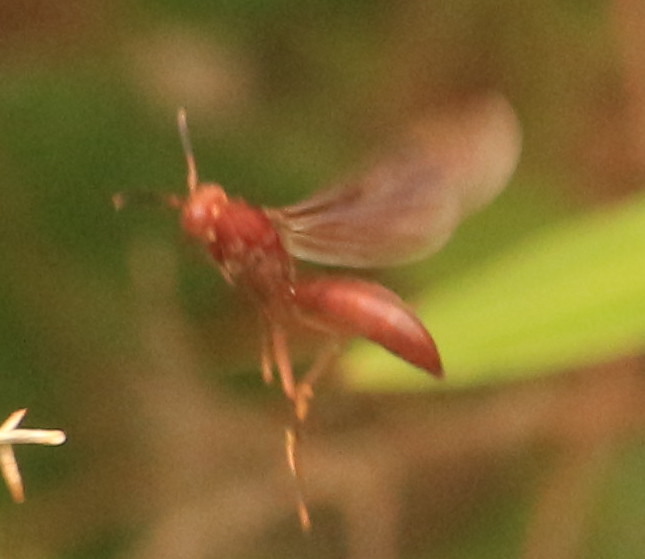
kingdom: Animalia
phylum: Arthropoda
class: Insecta
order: Hymenoptera
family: Eumenidae
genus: Polistes
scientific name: Polistes canadensis
